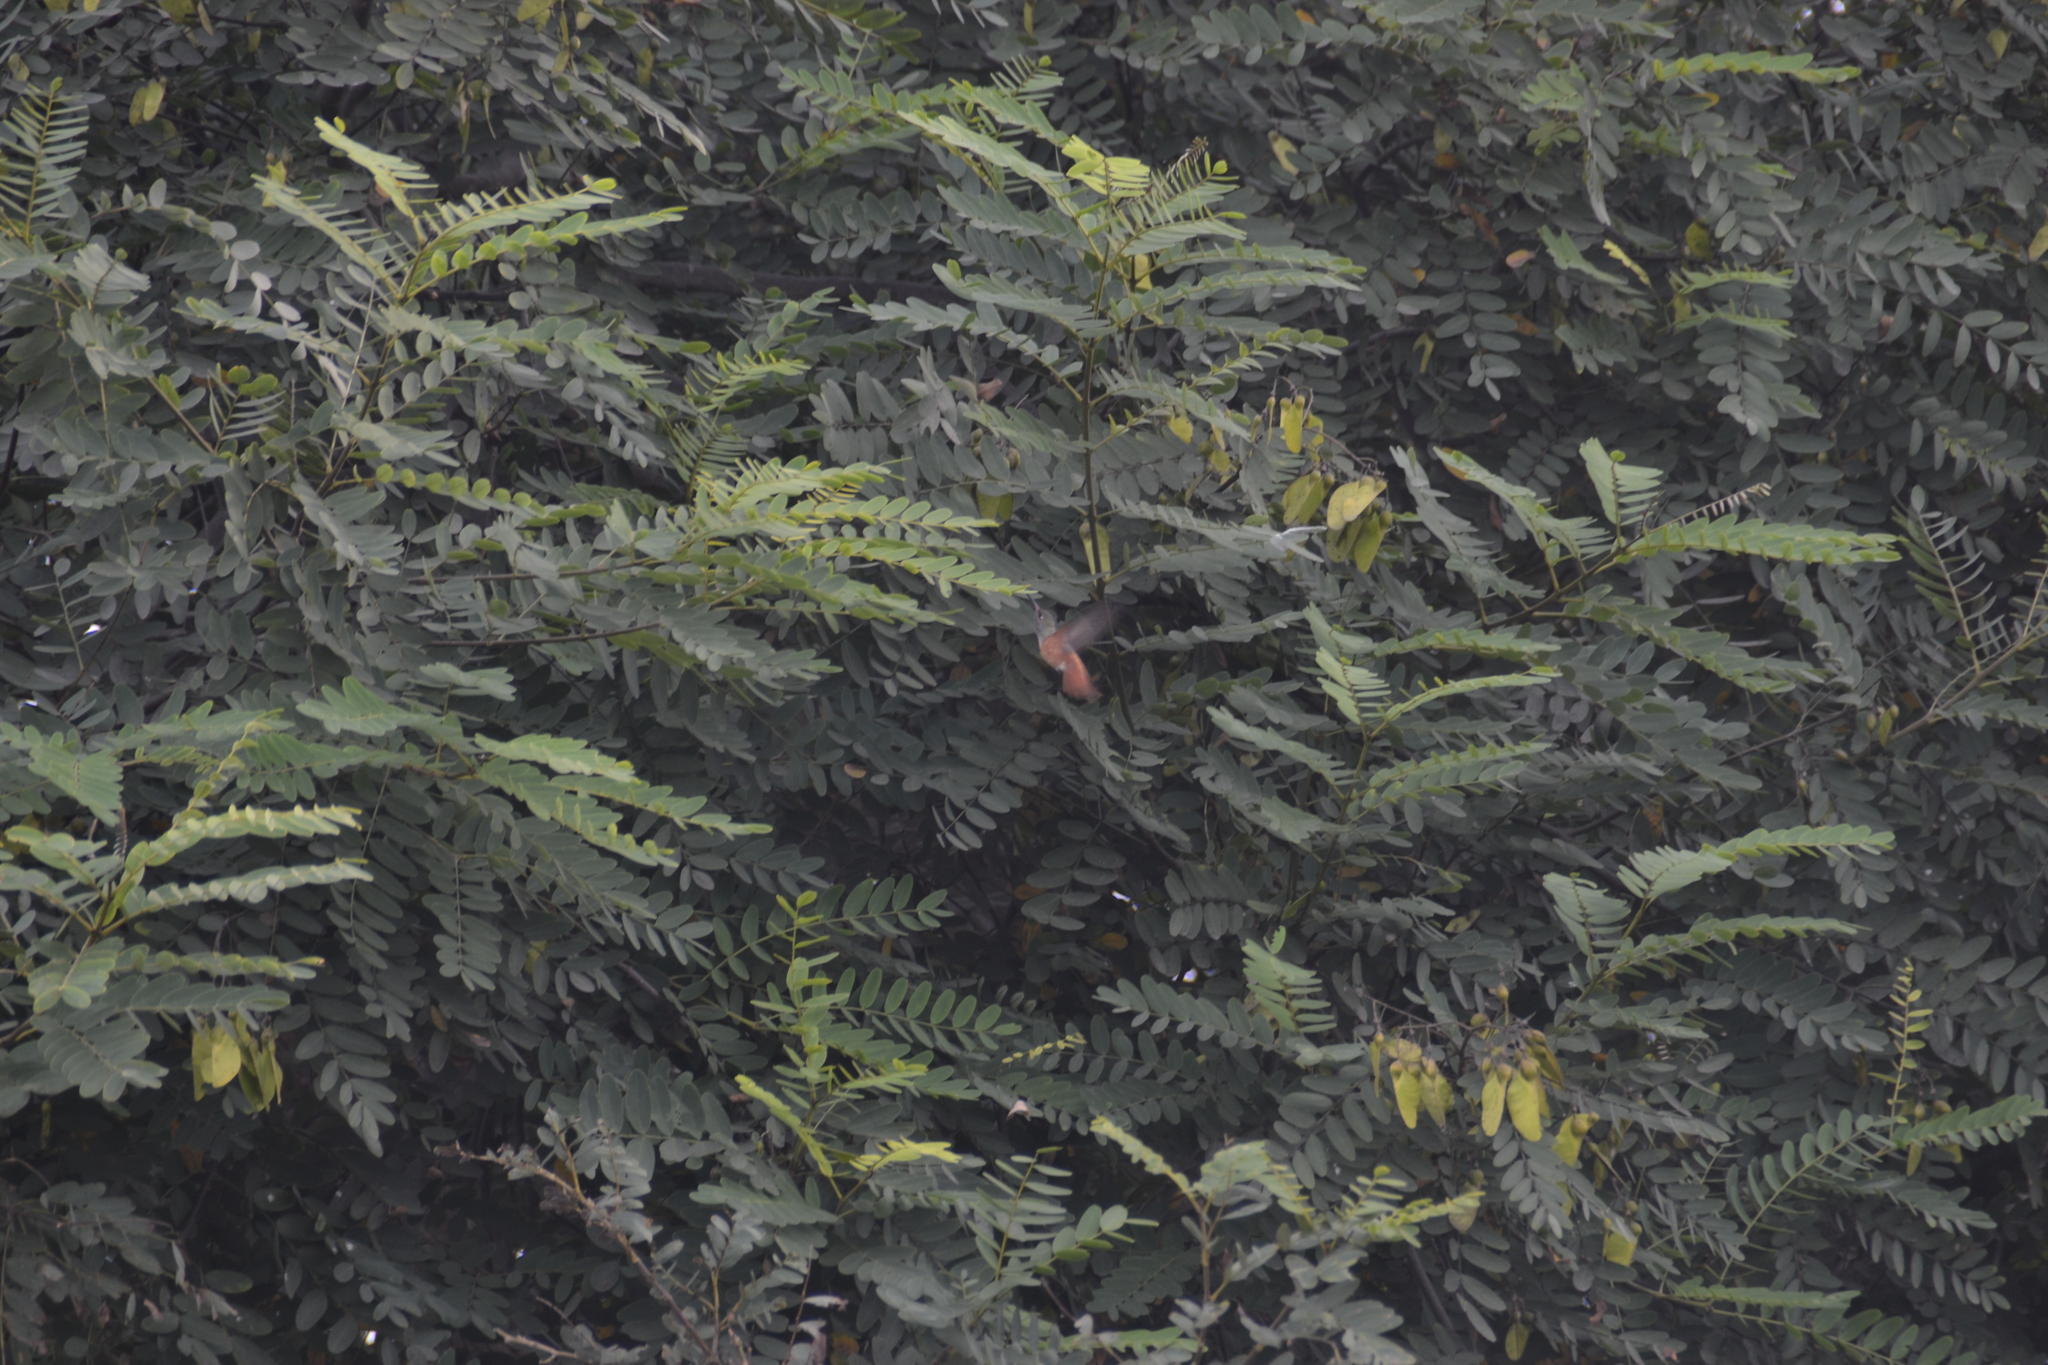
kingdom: Animalia
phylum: Chordata
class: Aves
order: Apodiformes
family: Trochilidae
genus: Amazilis
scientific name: Amazilis amazilia
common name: Amazilia hummingbird
